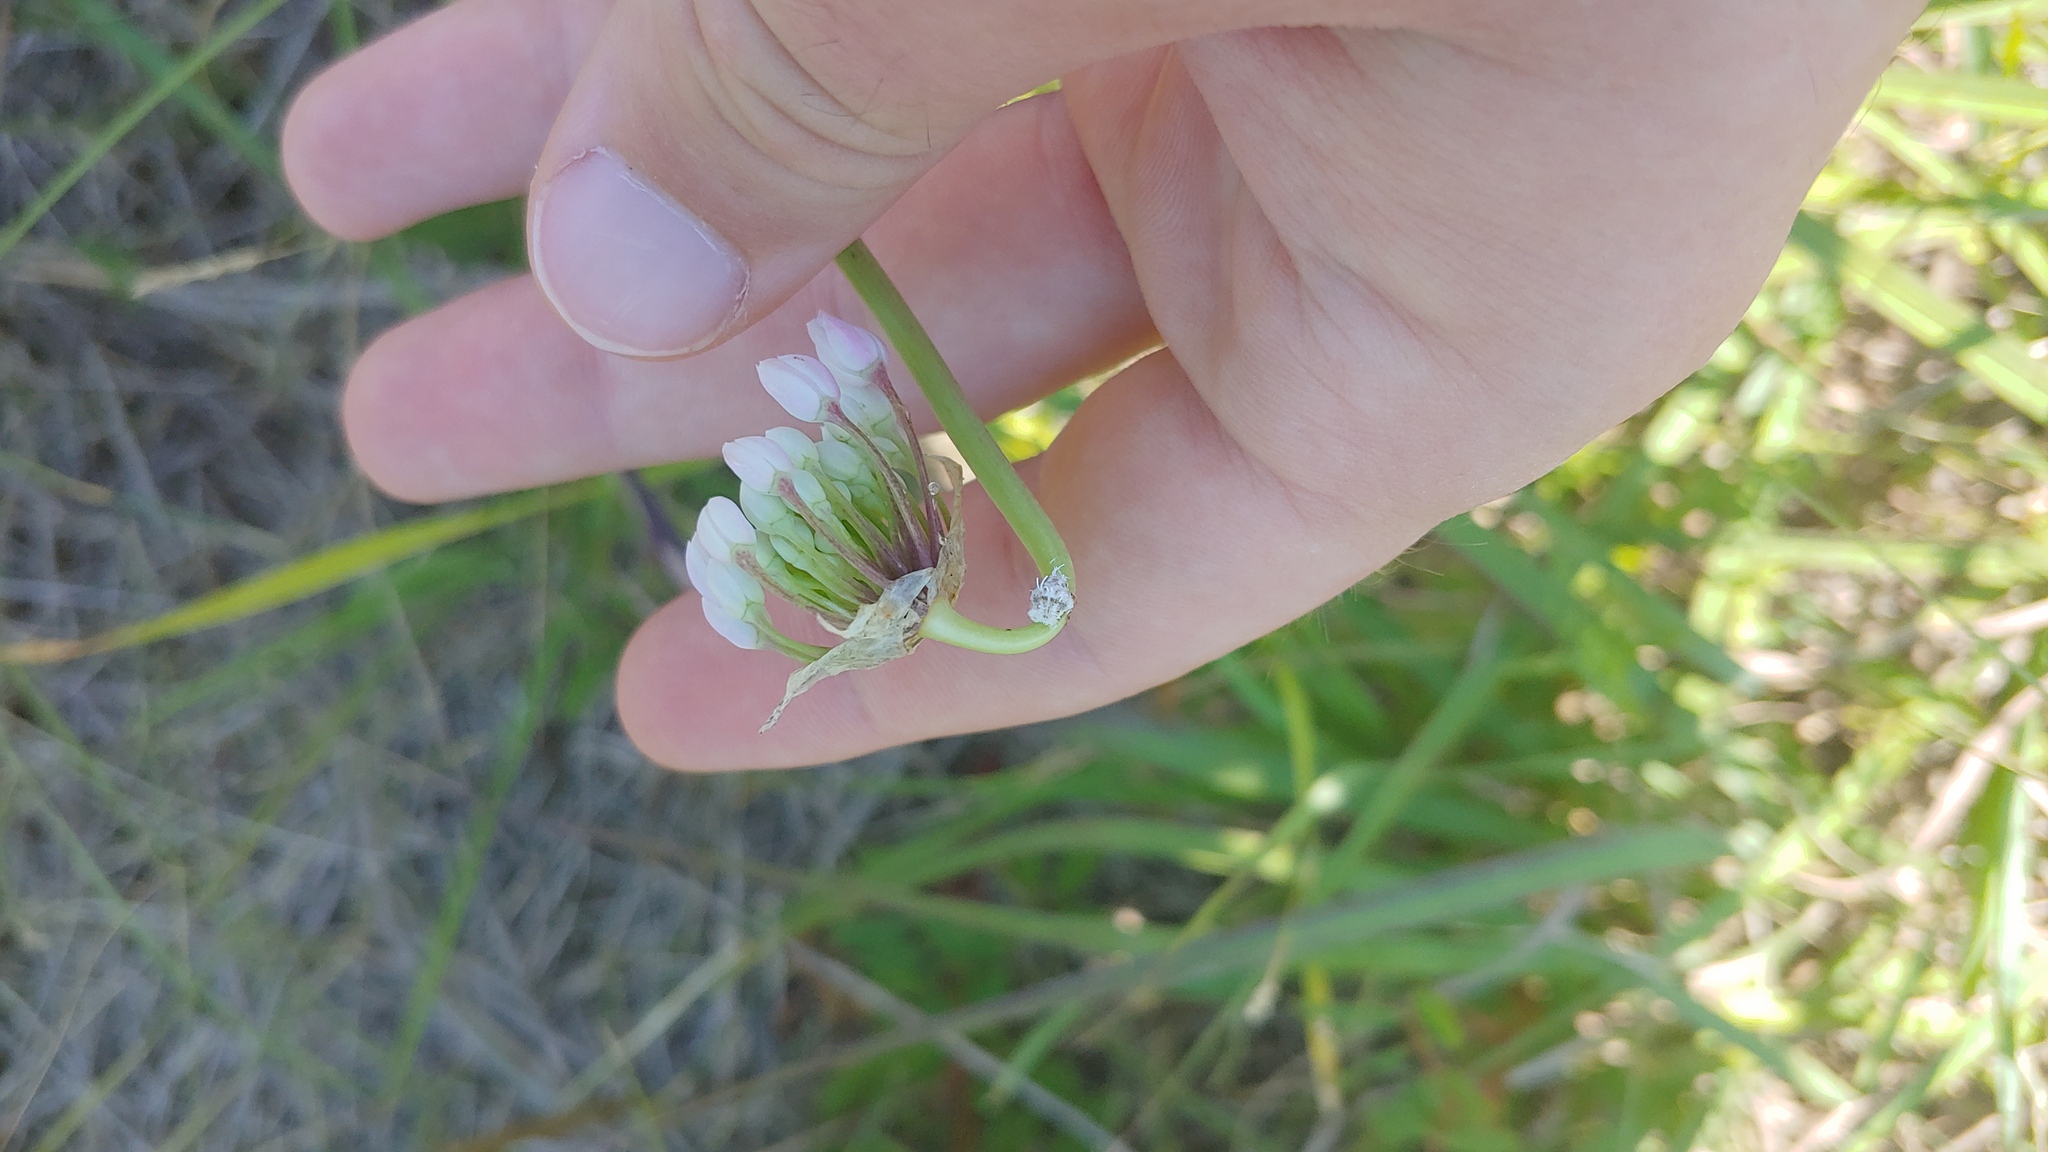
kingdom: Plantae
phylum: Tracheophyta
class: Liliopsida
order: Asparagales
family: Amaryllidaceae
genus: Allium
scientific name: Allium cernuum
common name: Nodding onion
